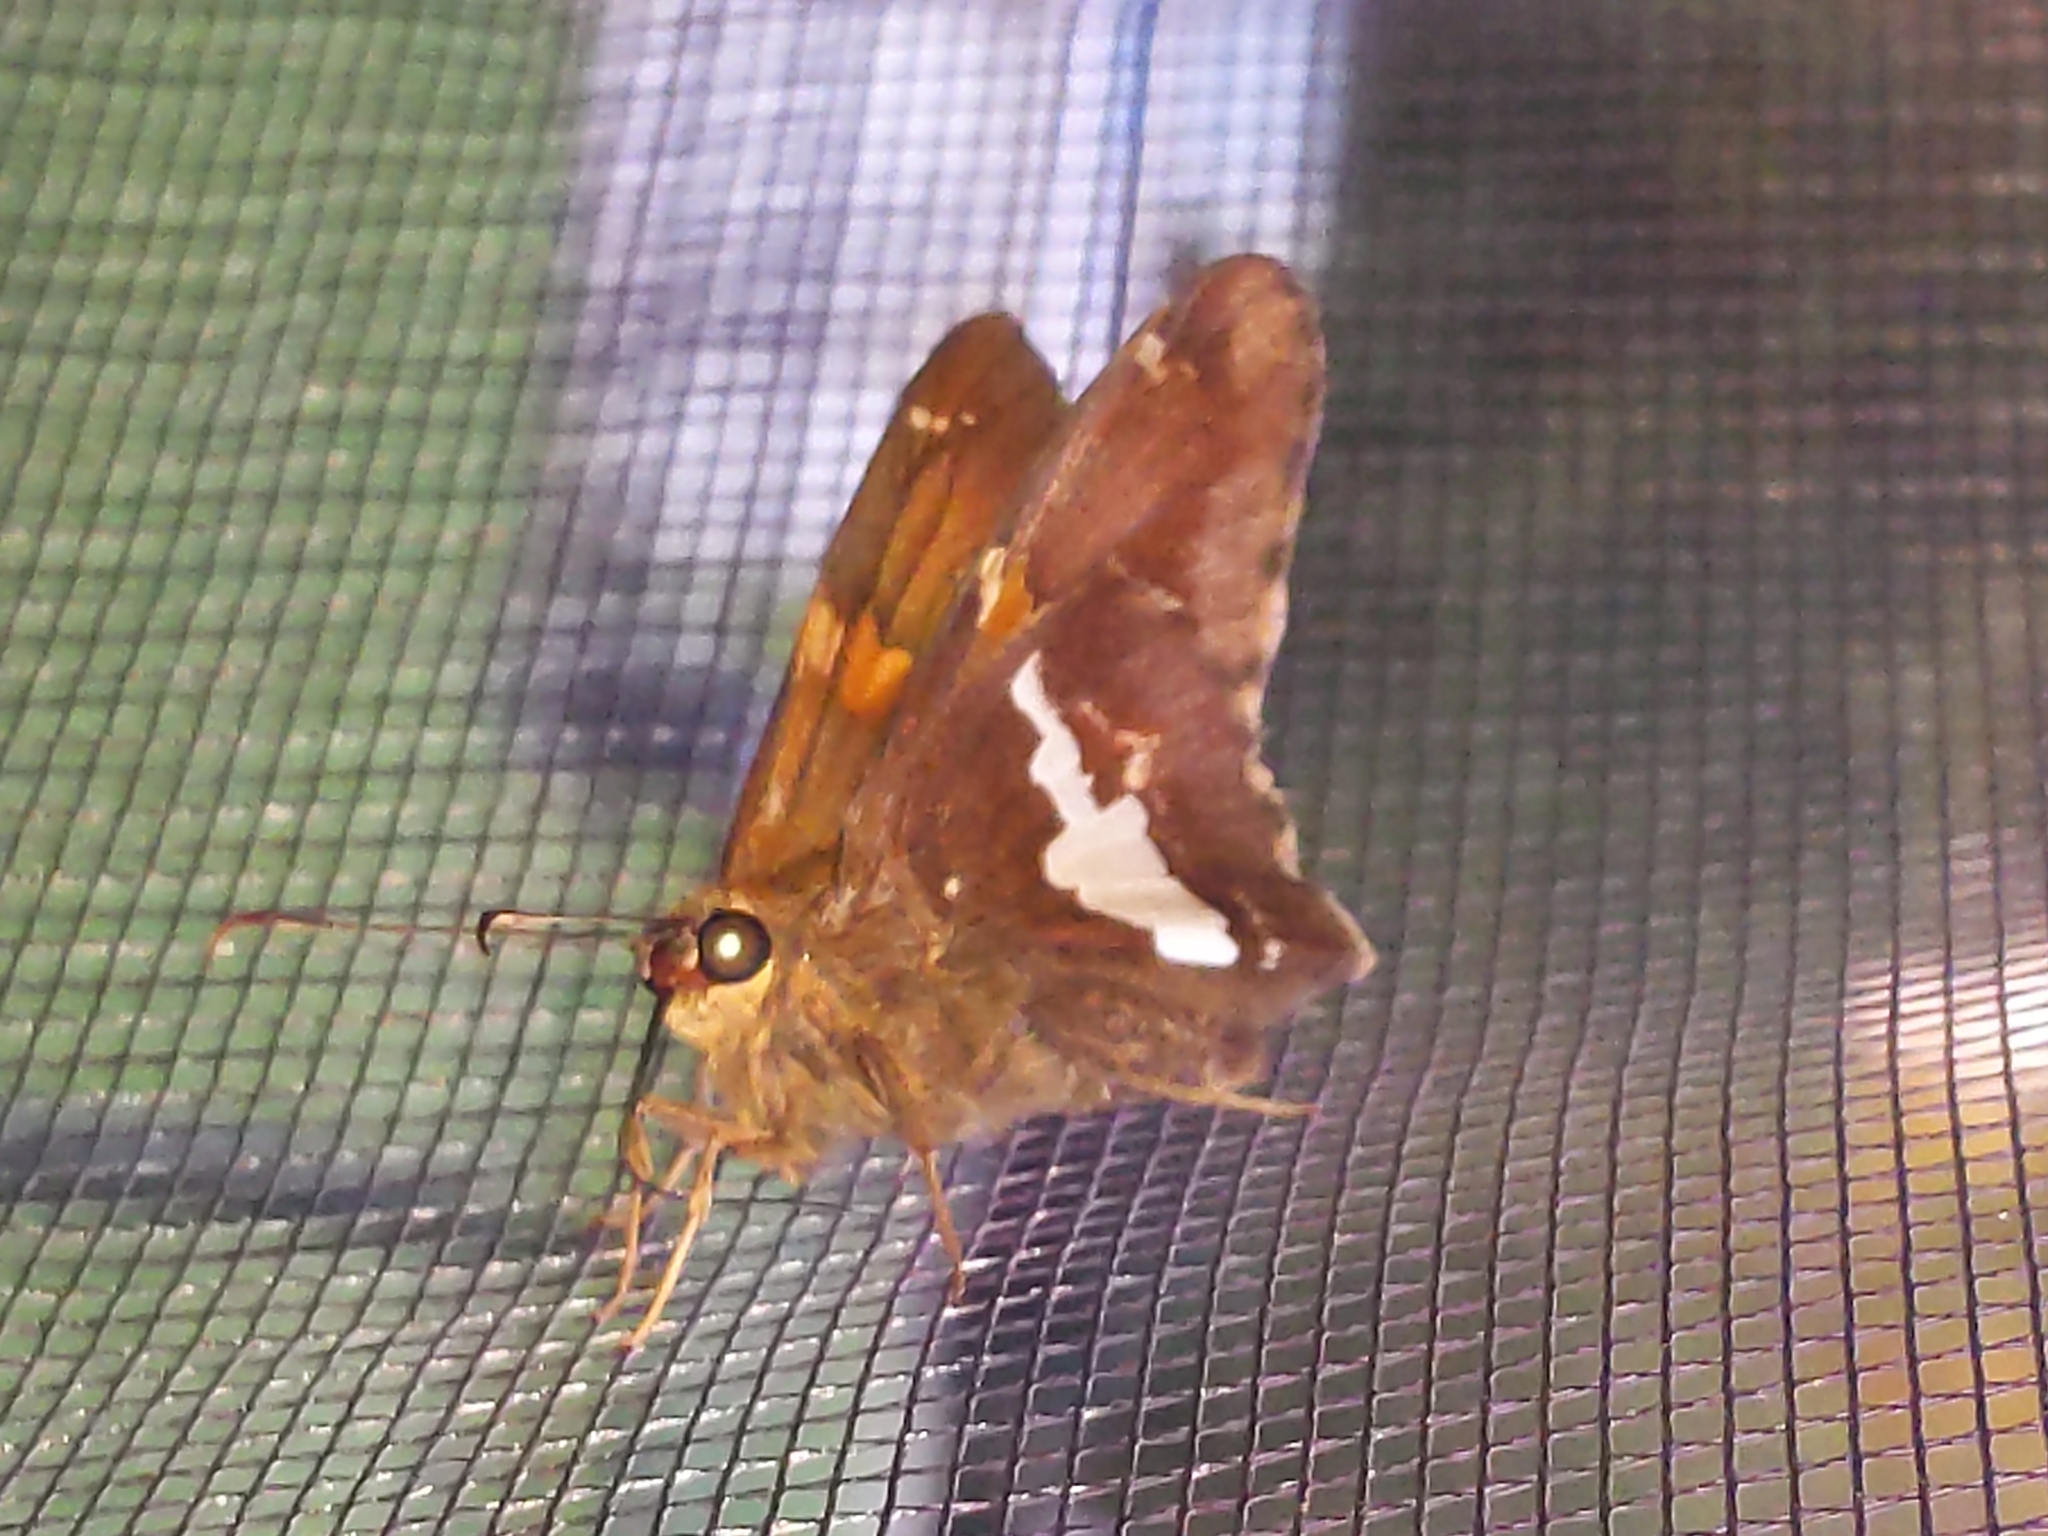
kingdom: Animalia
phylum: Arthropoda
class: Insecta
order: Lepidoptera
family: Hesperiidae
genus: Epargyreus
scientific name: Epargyreus clarus
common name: Silver-spotted skipper
